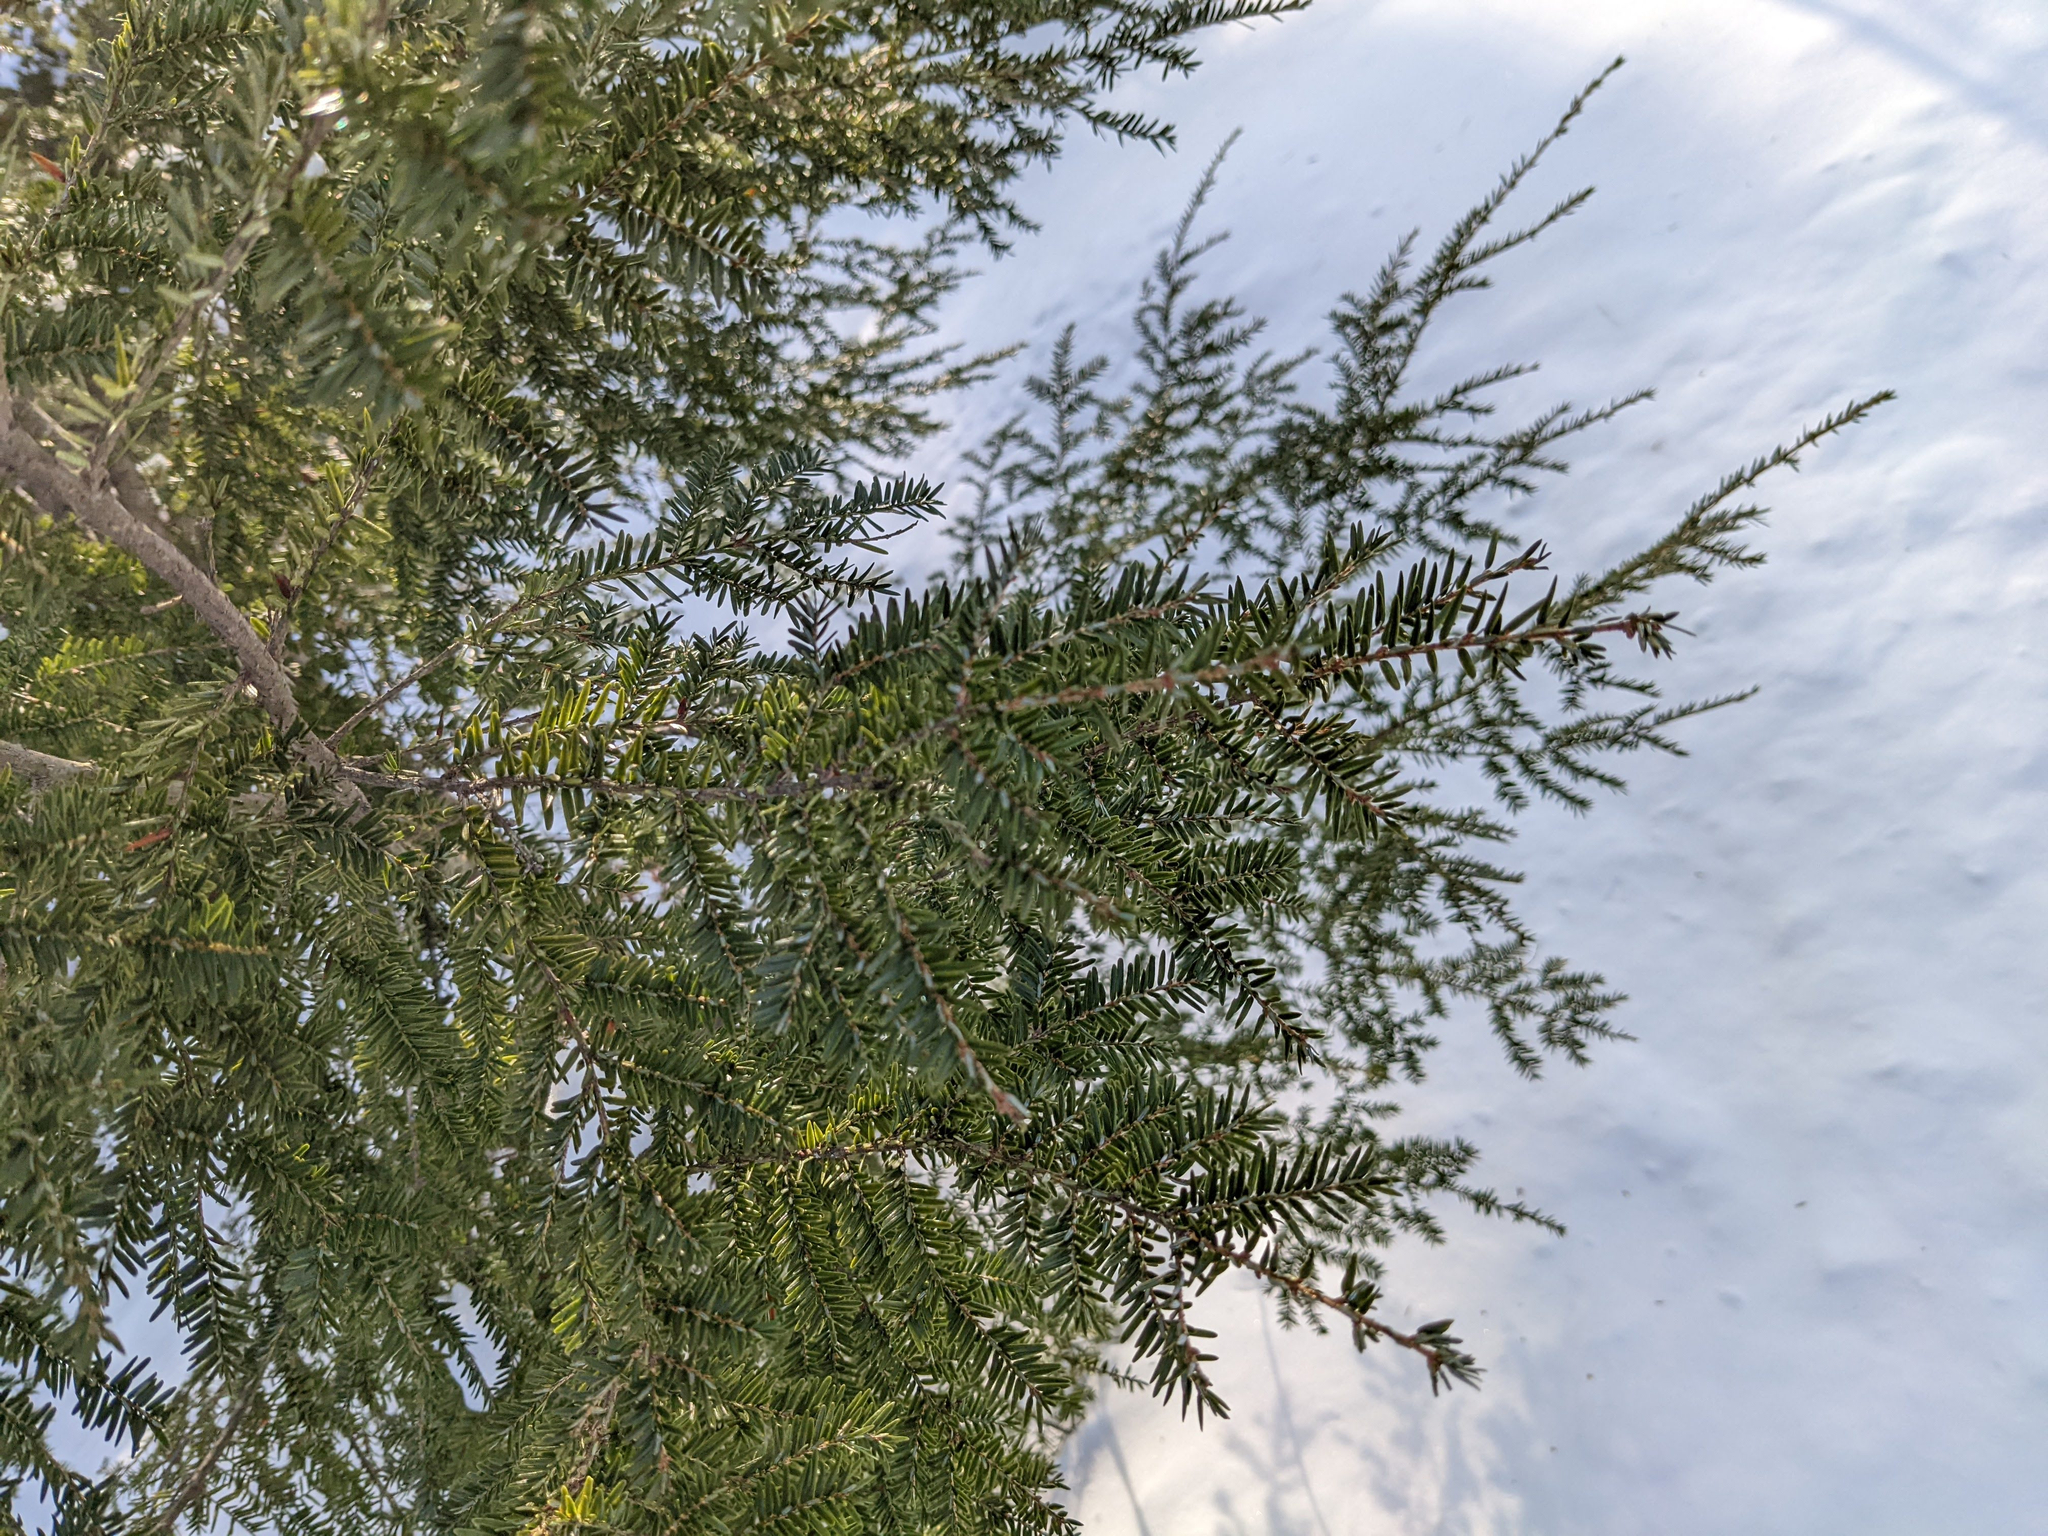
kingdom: Plantae
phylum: Tracheophyta
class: Pinopsida
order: Pinales
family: Pinaceae
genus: Tsuga
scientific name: Tsuga canadensis
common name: Eastern hemlock
